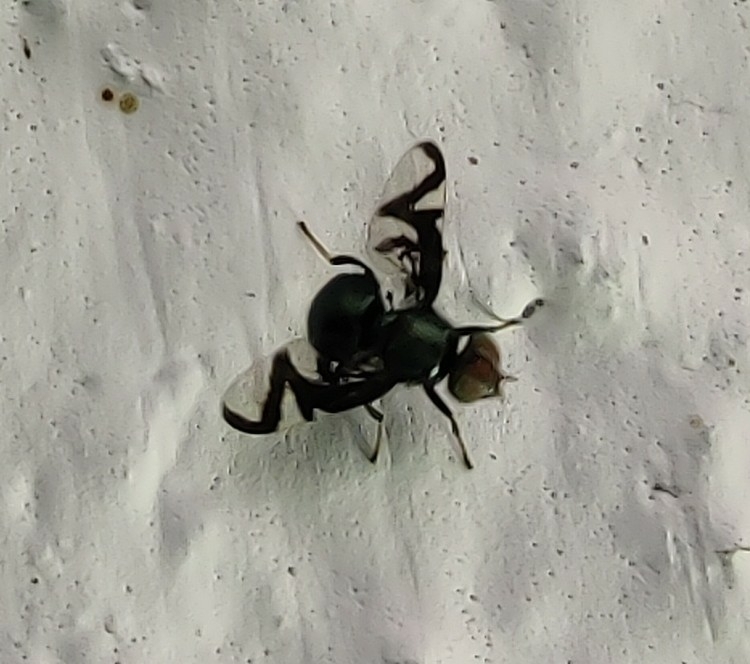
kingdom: Animalia
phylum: Arthropoda
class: Insecta
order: Diptera
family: Platystomatidae
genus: Rivellia
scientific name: Rivellia sinuosa
